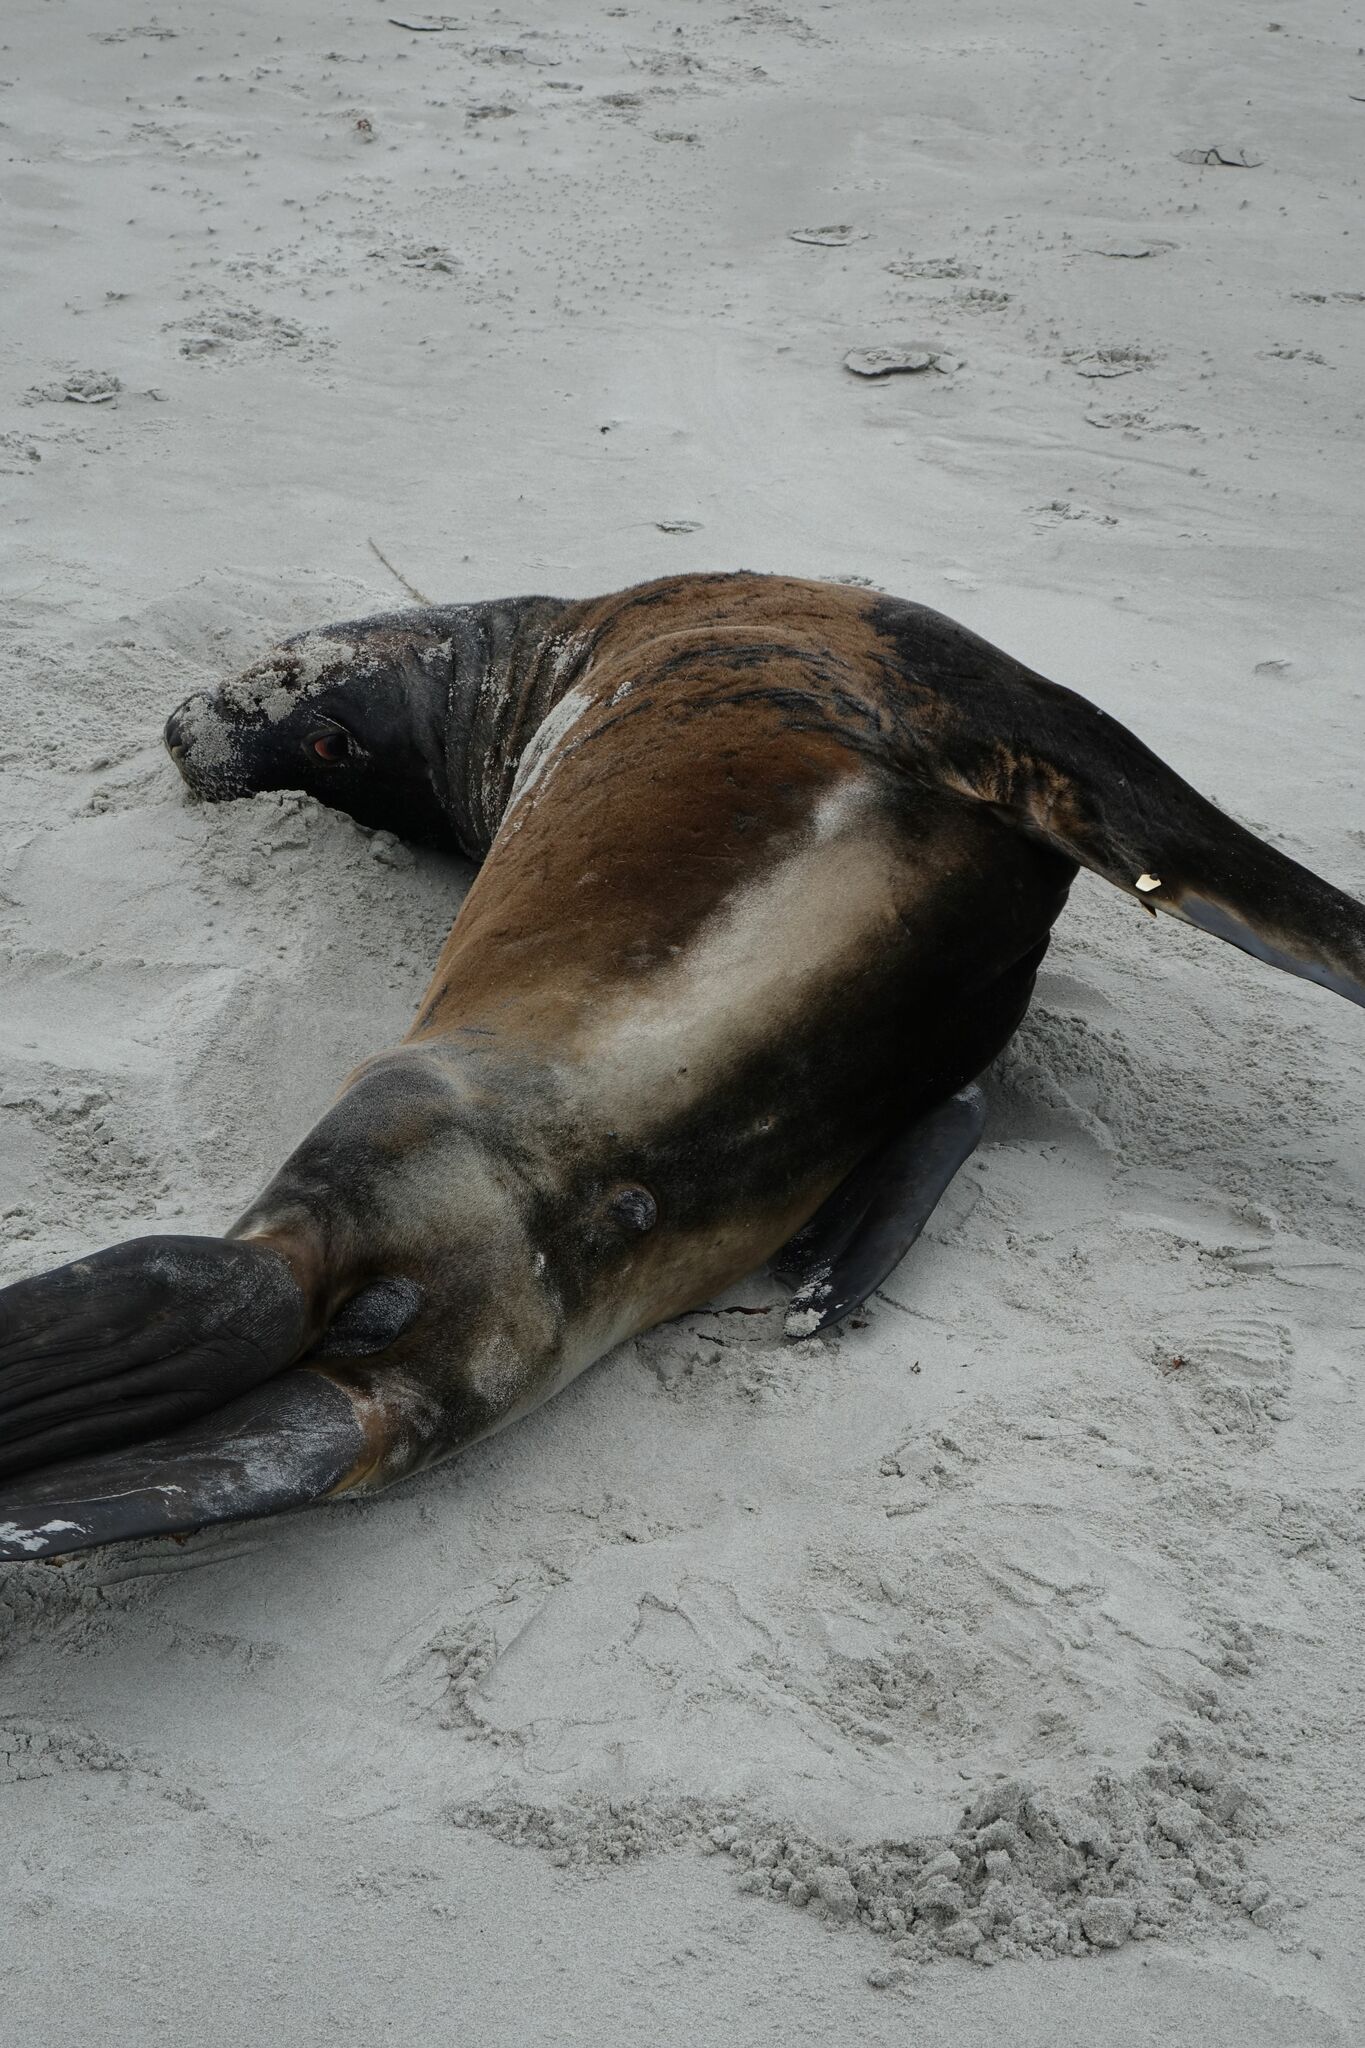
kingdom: Animalia
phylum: Chordata
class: Mammalia
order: Carnivora
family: Otariidae
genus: Phocarctos
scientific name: Phocarctos hookeri
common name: New zealand sea lion
